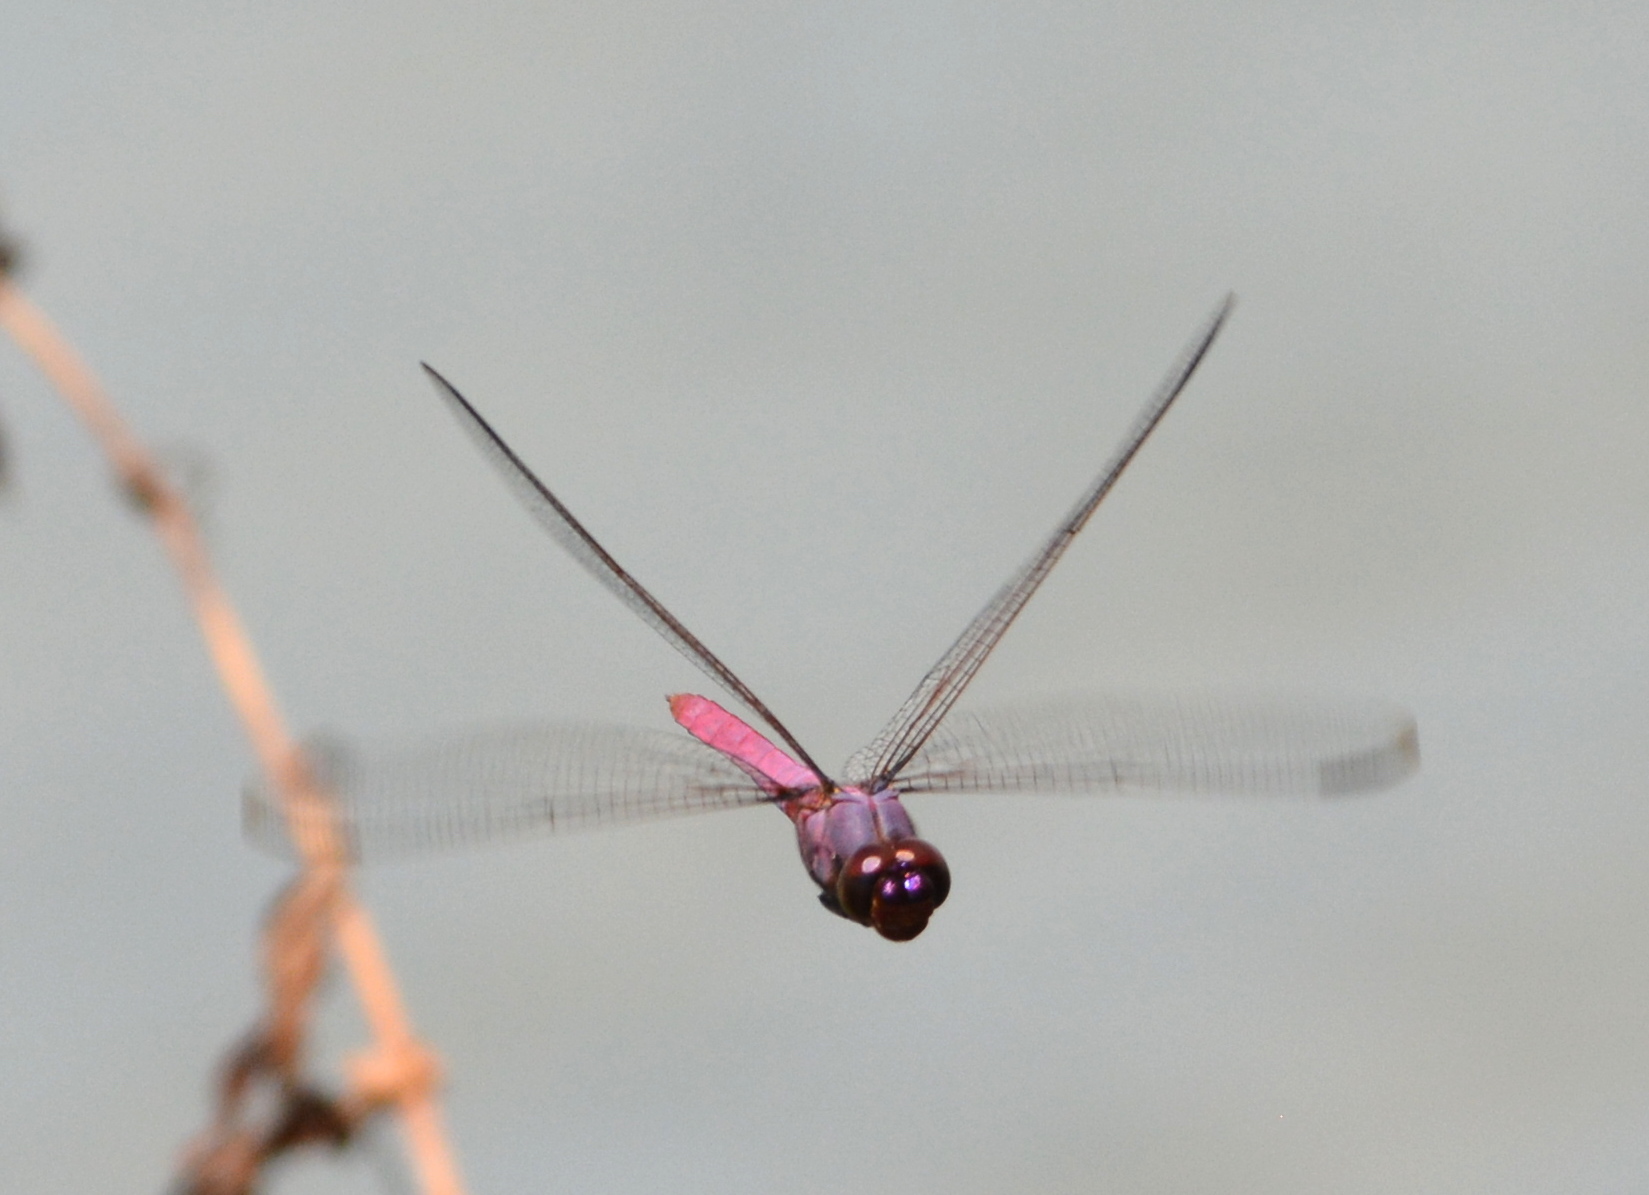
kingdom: Animalia
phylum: Arthropoda
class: Insecta
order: Odonata
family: Libellulidae
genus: Orthemis
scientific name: Orthemis ferruginea
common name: Roseate skimmer
